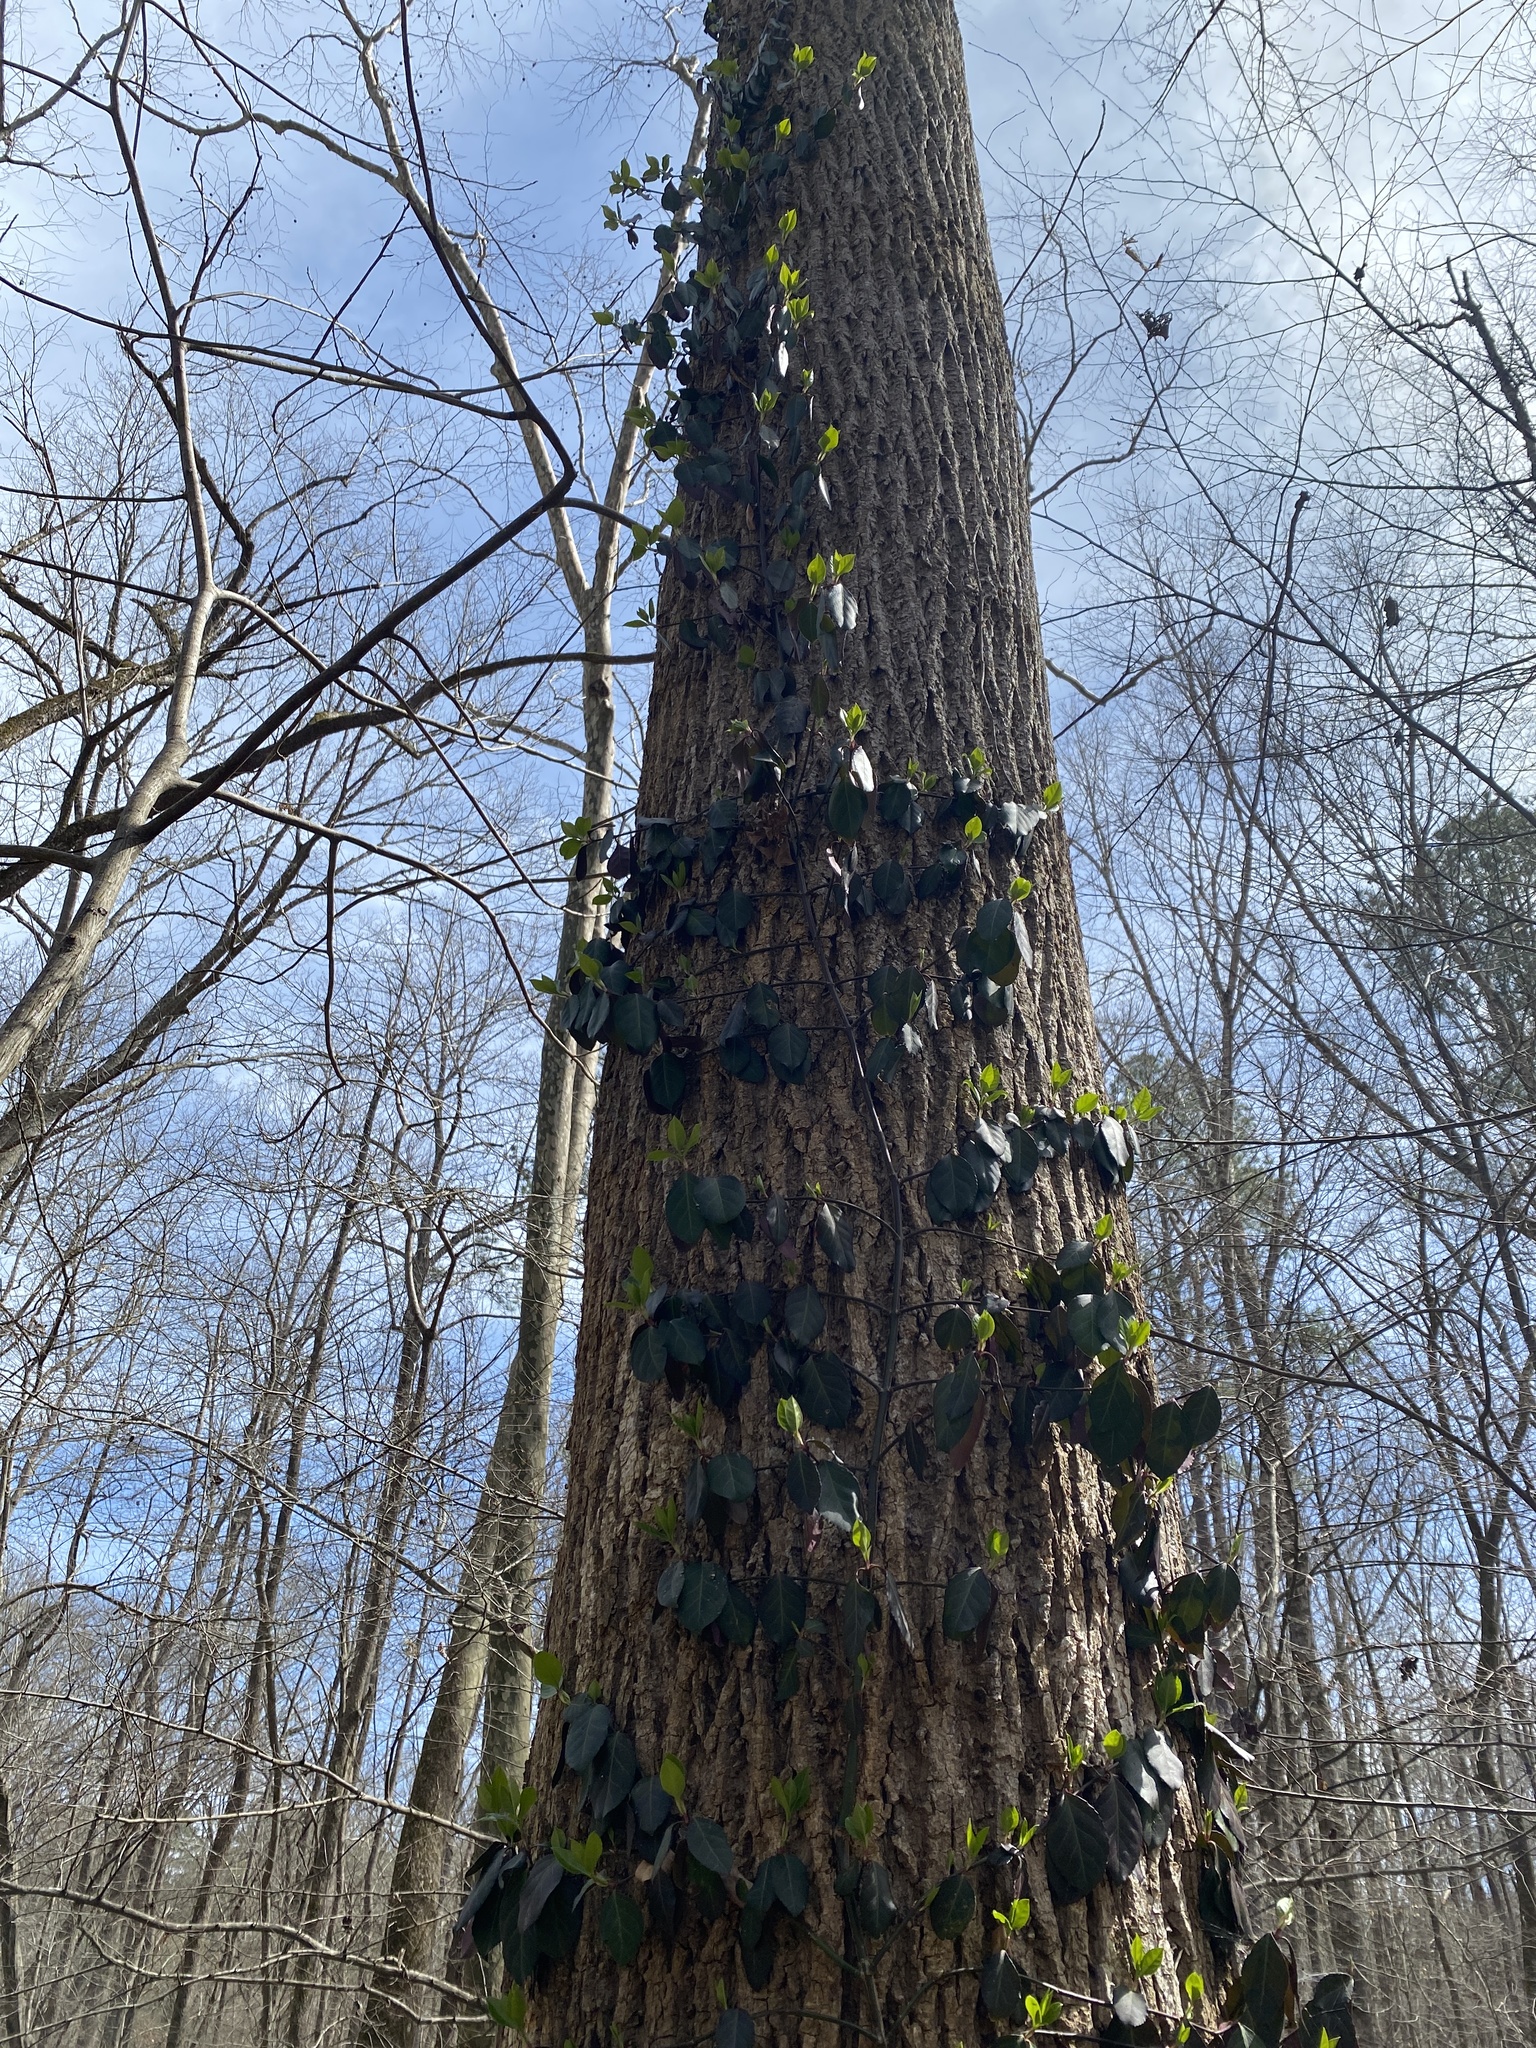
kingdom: Plantae
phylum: Tracheophyta
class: Magnoliopsida
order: Celastrales
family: Celastraceae
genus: Euonymus
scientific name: Euonymus fortunei
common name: Climbing euonymus
